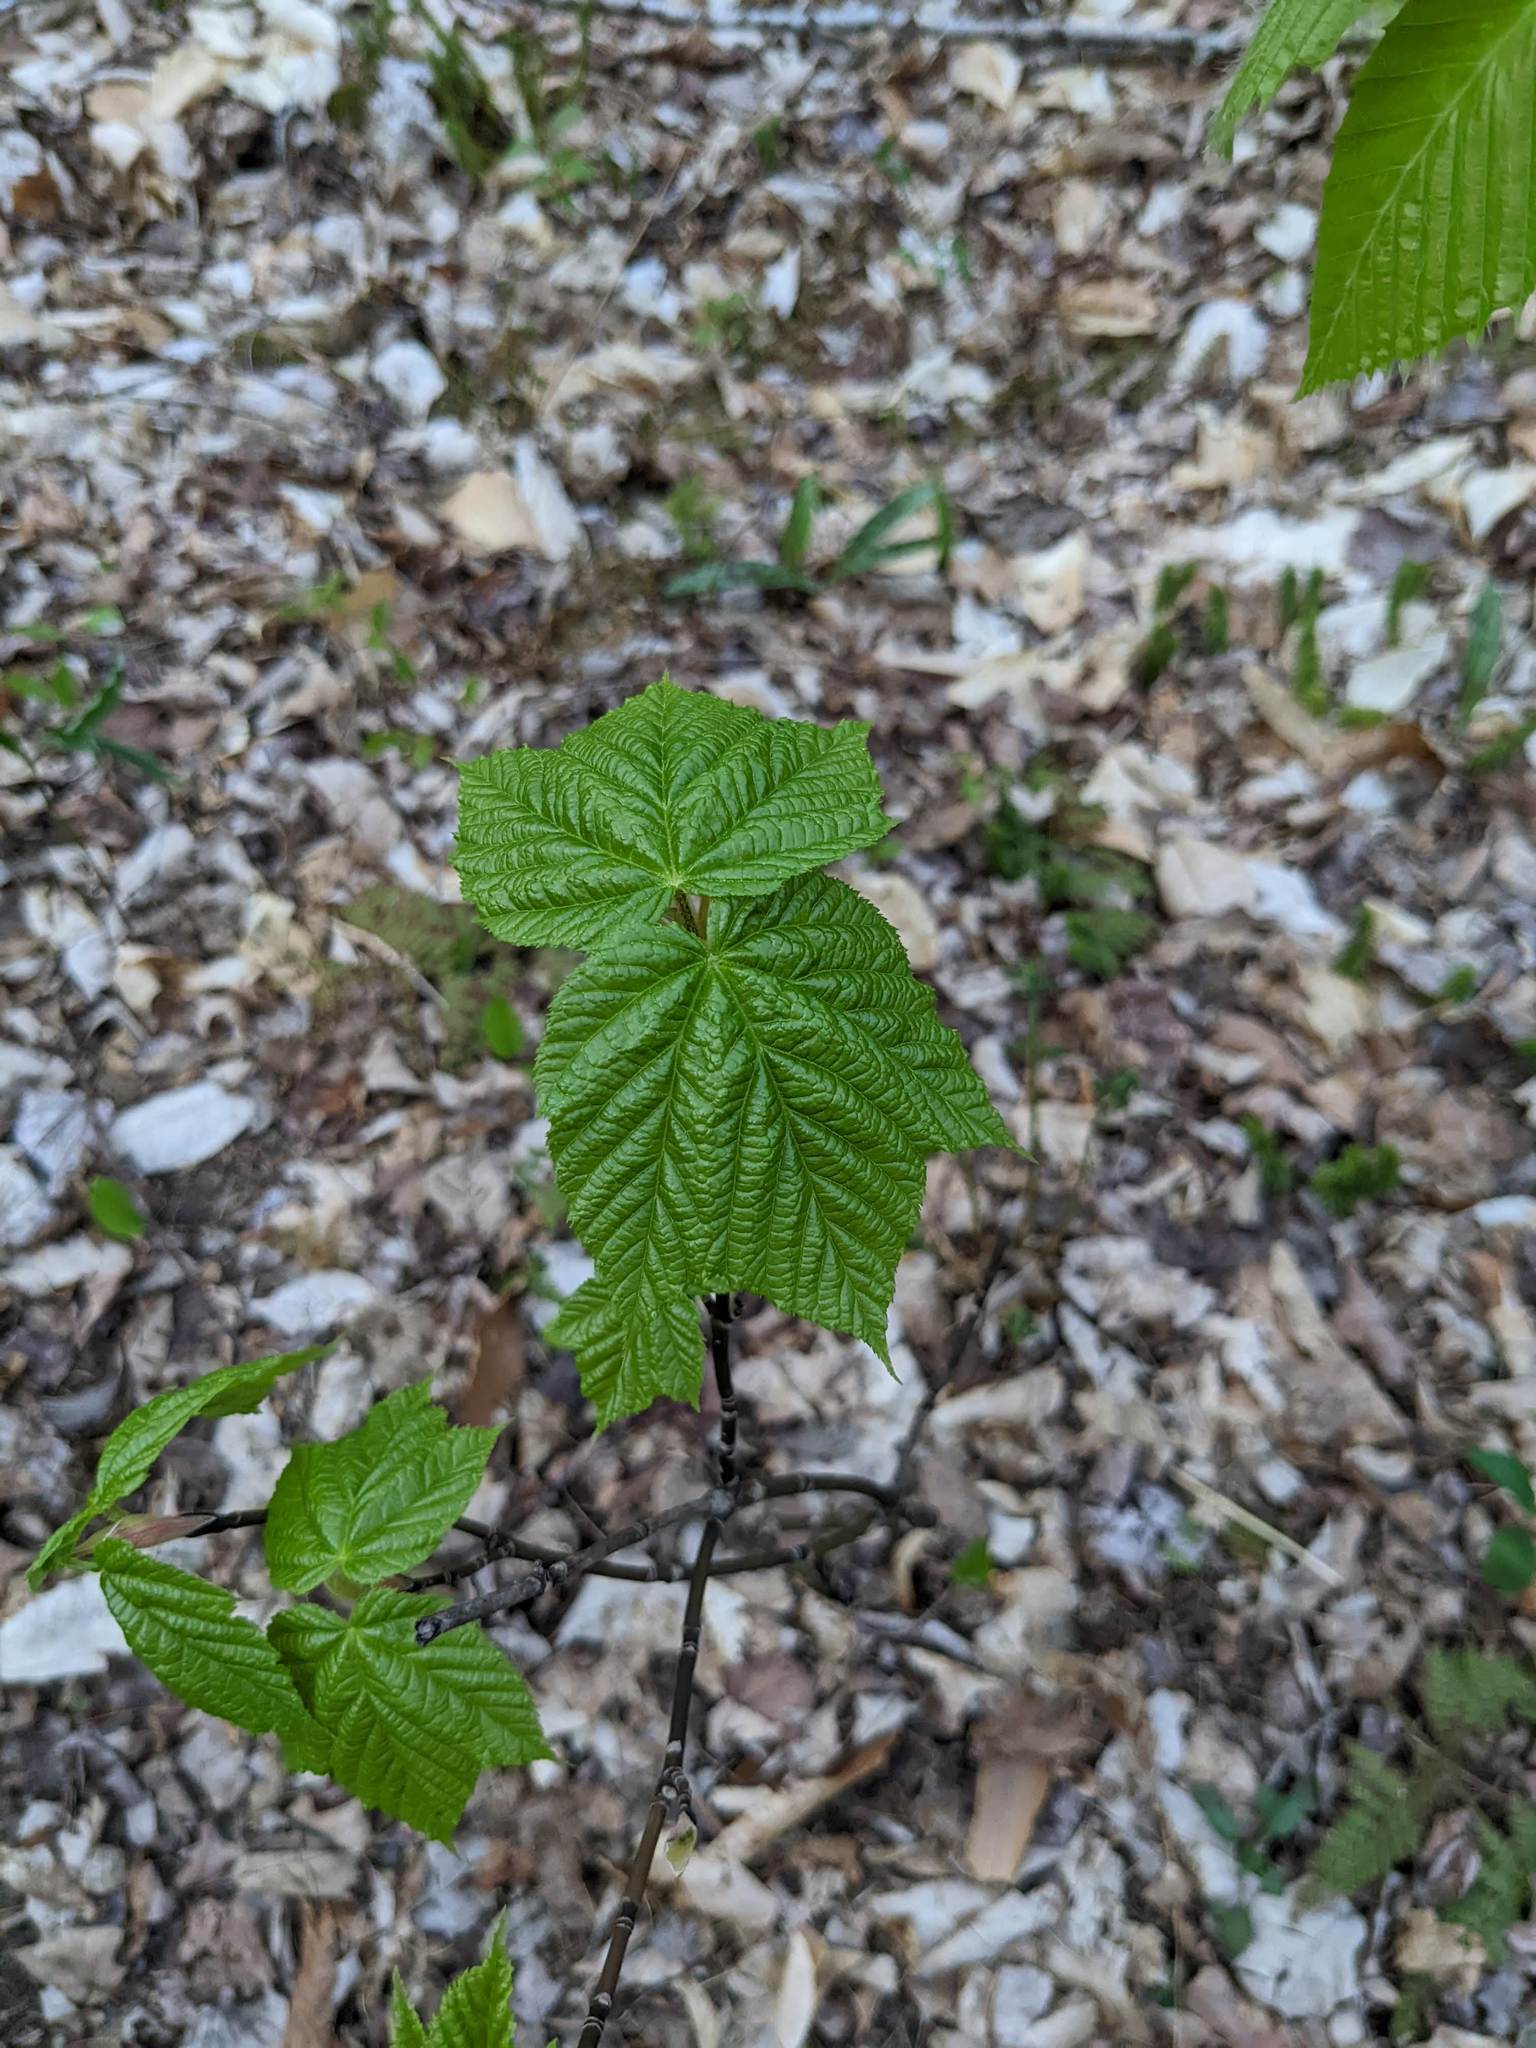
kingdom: Plantae
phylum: Tracheophyta
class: Magnoliopsida
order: Sapindales
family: Sapindaceae
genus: Acer
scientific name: Acer pensylvanicum
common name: Moosewood
